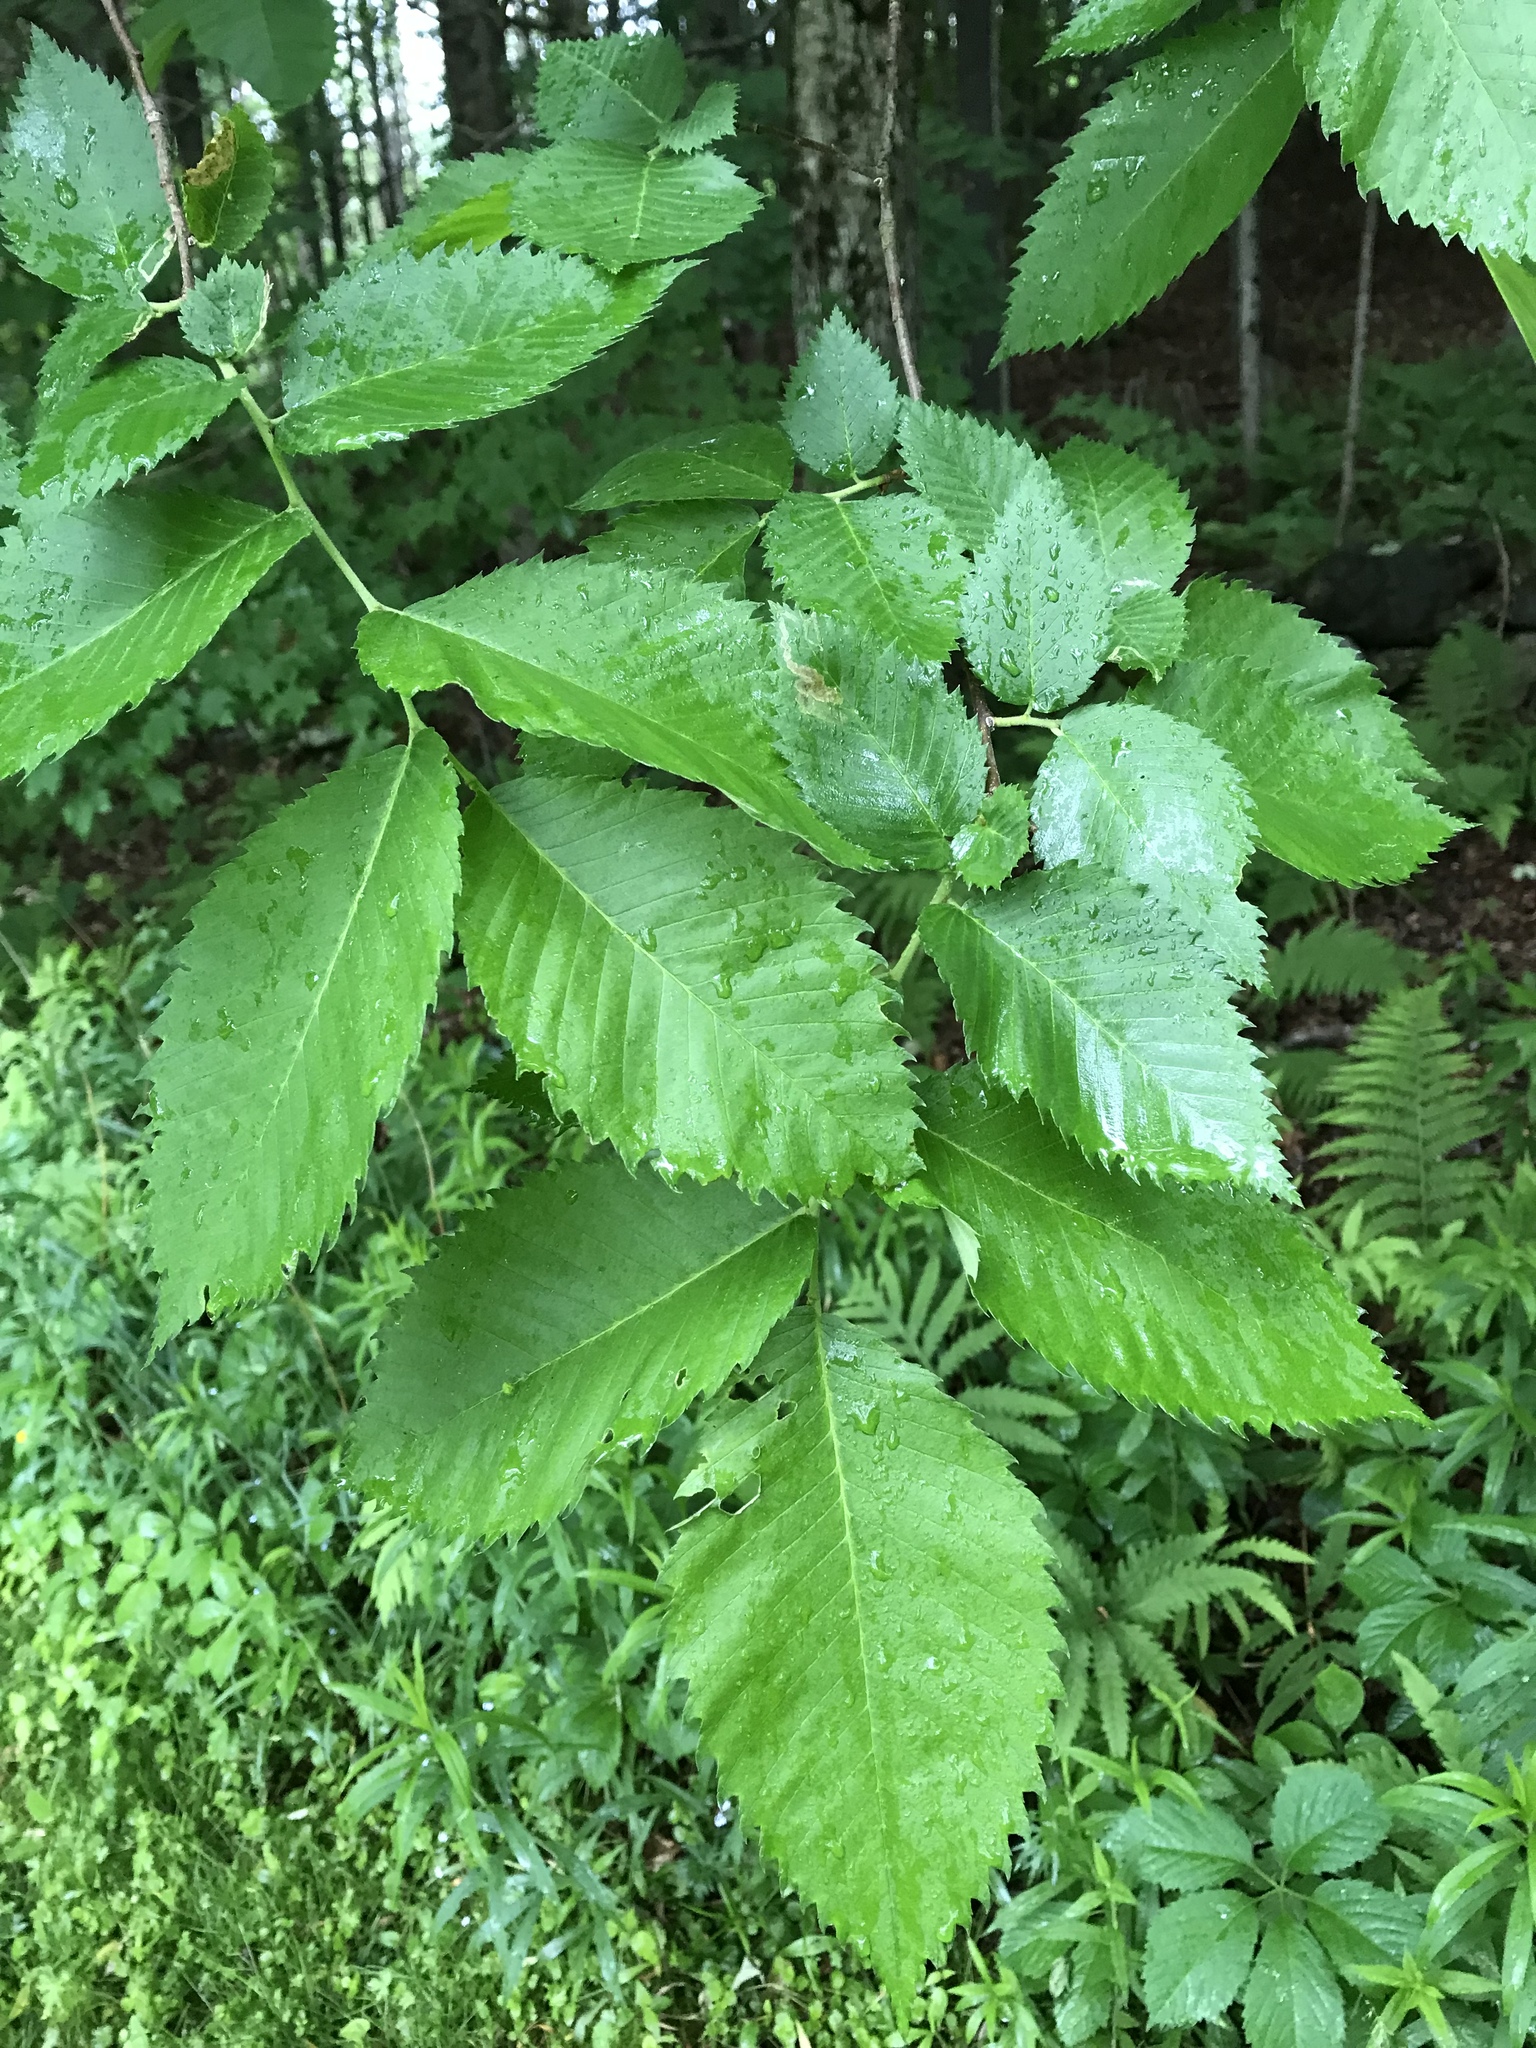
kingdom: Plantae
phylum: Tracheophyta
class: Magnoliopsida
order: Rosales
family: Ulmaceae
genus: Ulmus
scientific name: Ulmus americana
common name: American elm
